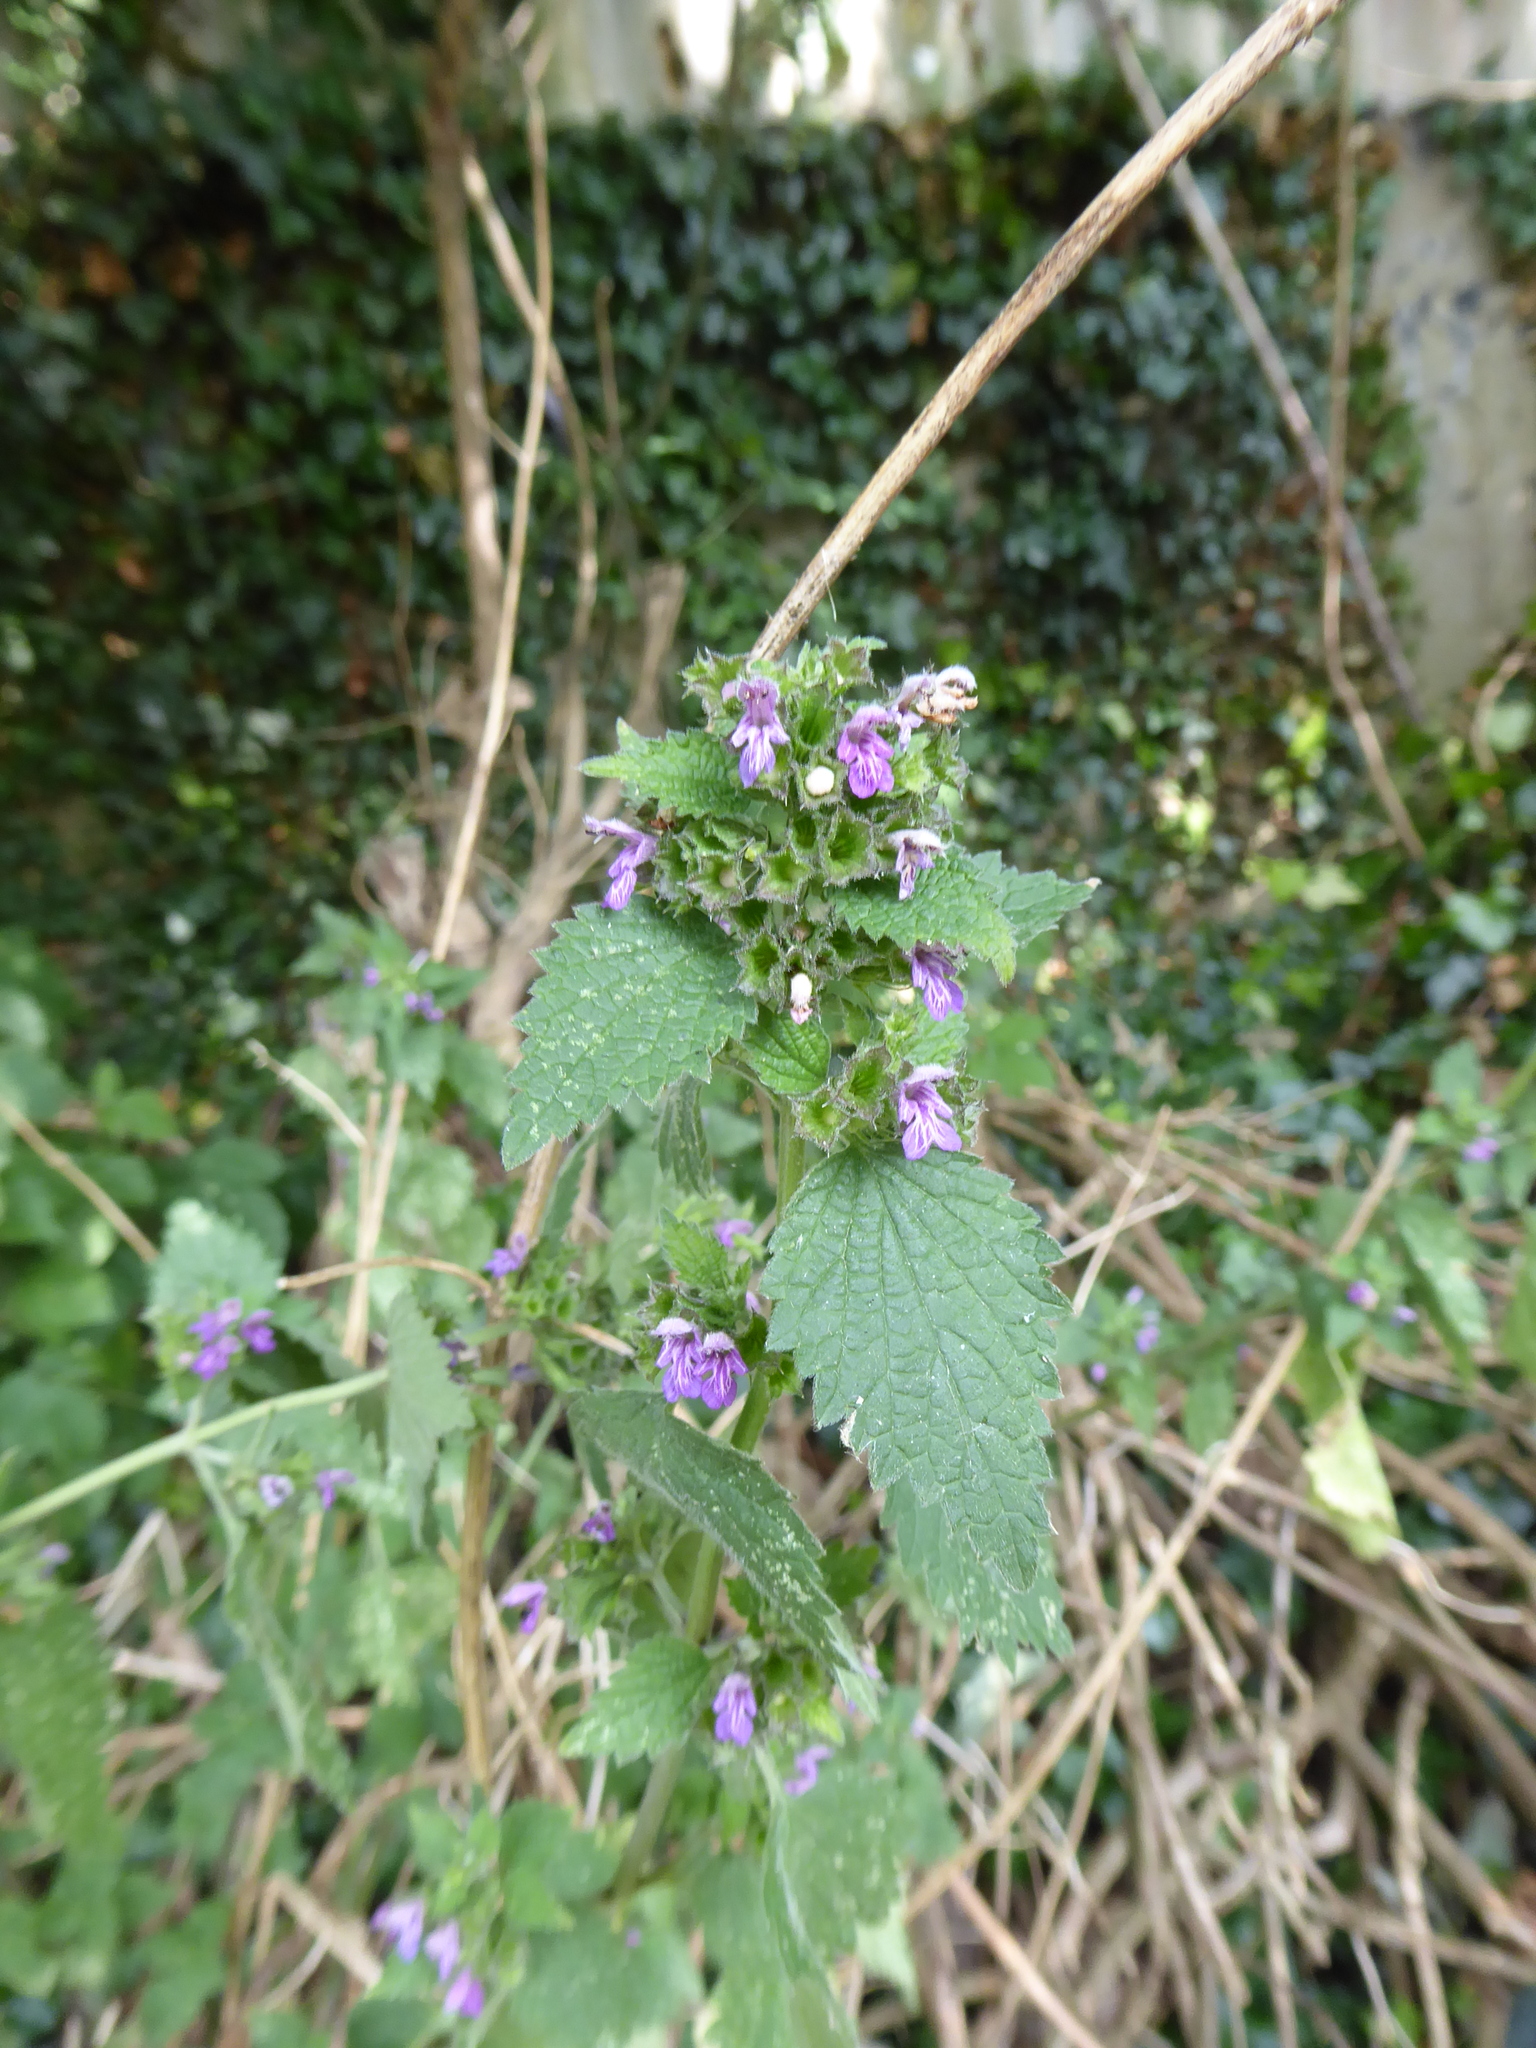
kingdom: Plantae
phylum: Tracheophyta
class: Magnoliopsida
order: Lamiales
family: Lamiaceae
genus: Ballota
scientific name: Ballota nigra
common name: Black horehound
